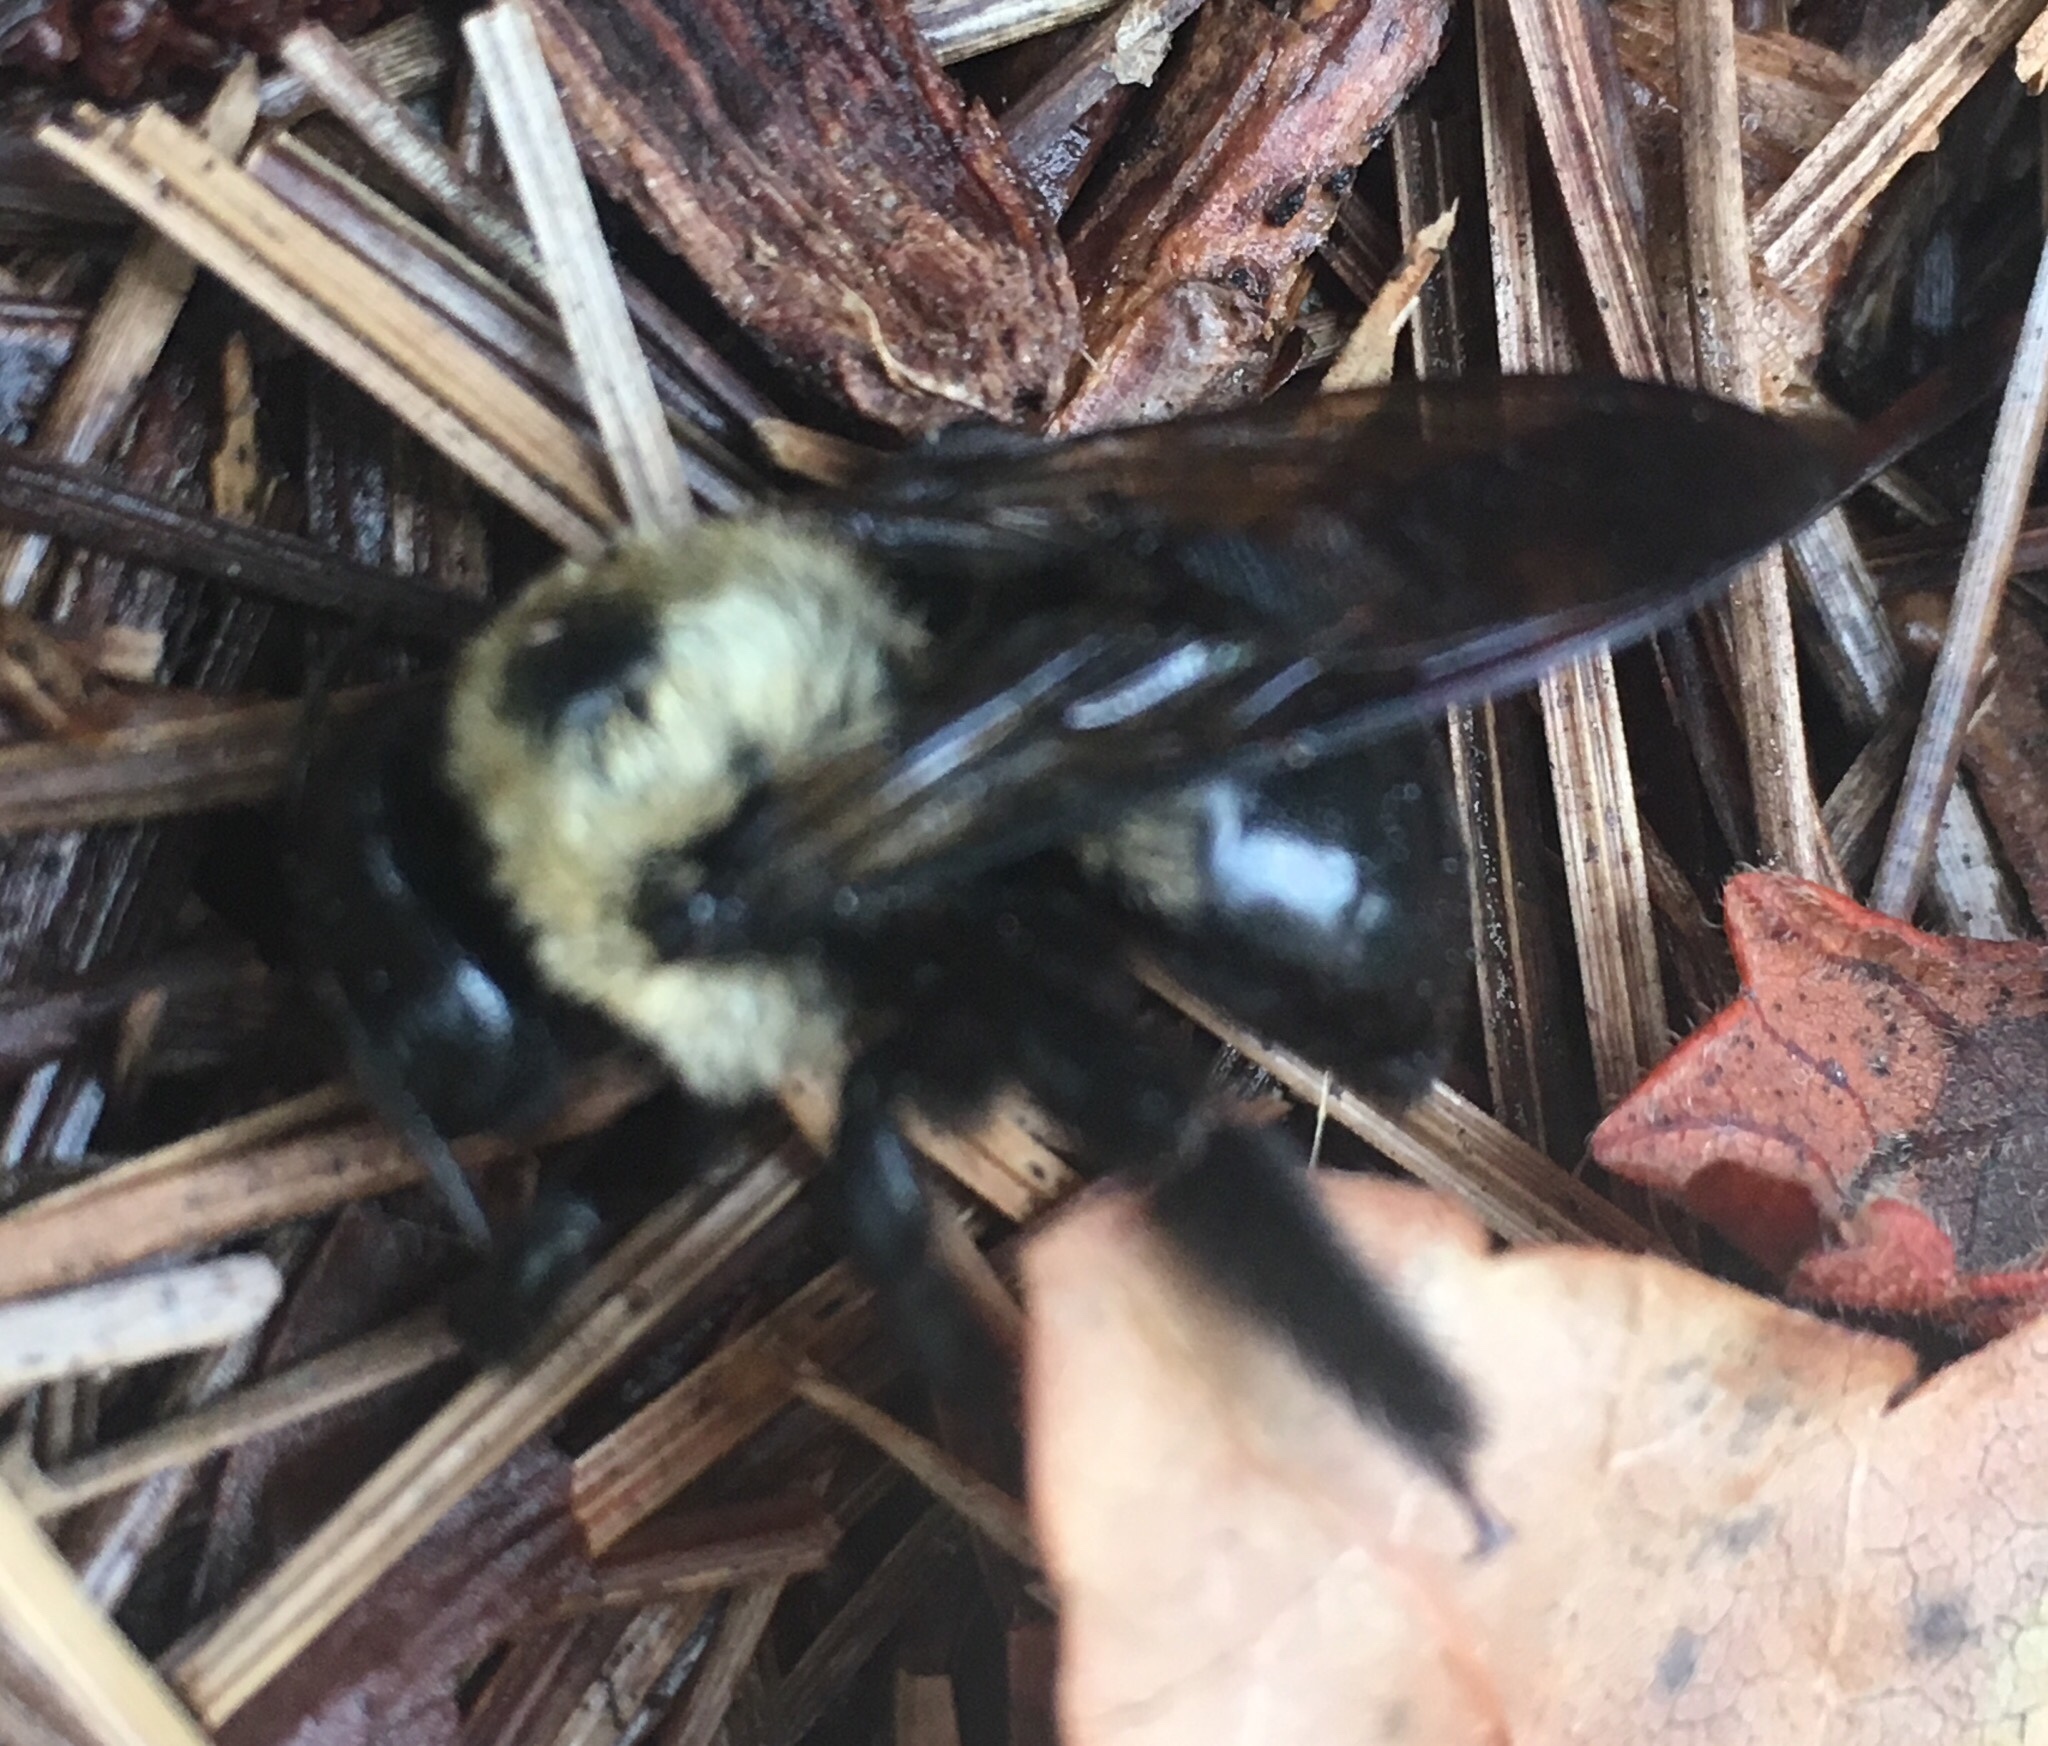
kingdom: Animalia
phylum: Arthropoda
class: Insecta
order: Hymenoptera
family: Apidae
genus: Xylocopa
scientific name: Xylocopa virginica
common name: Carpenter bee
